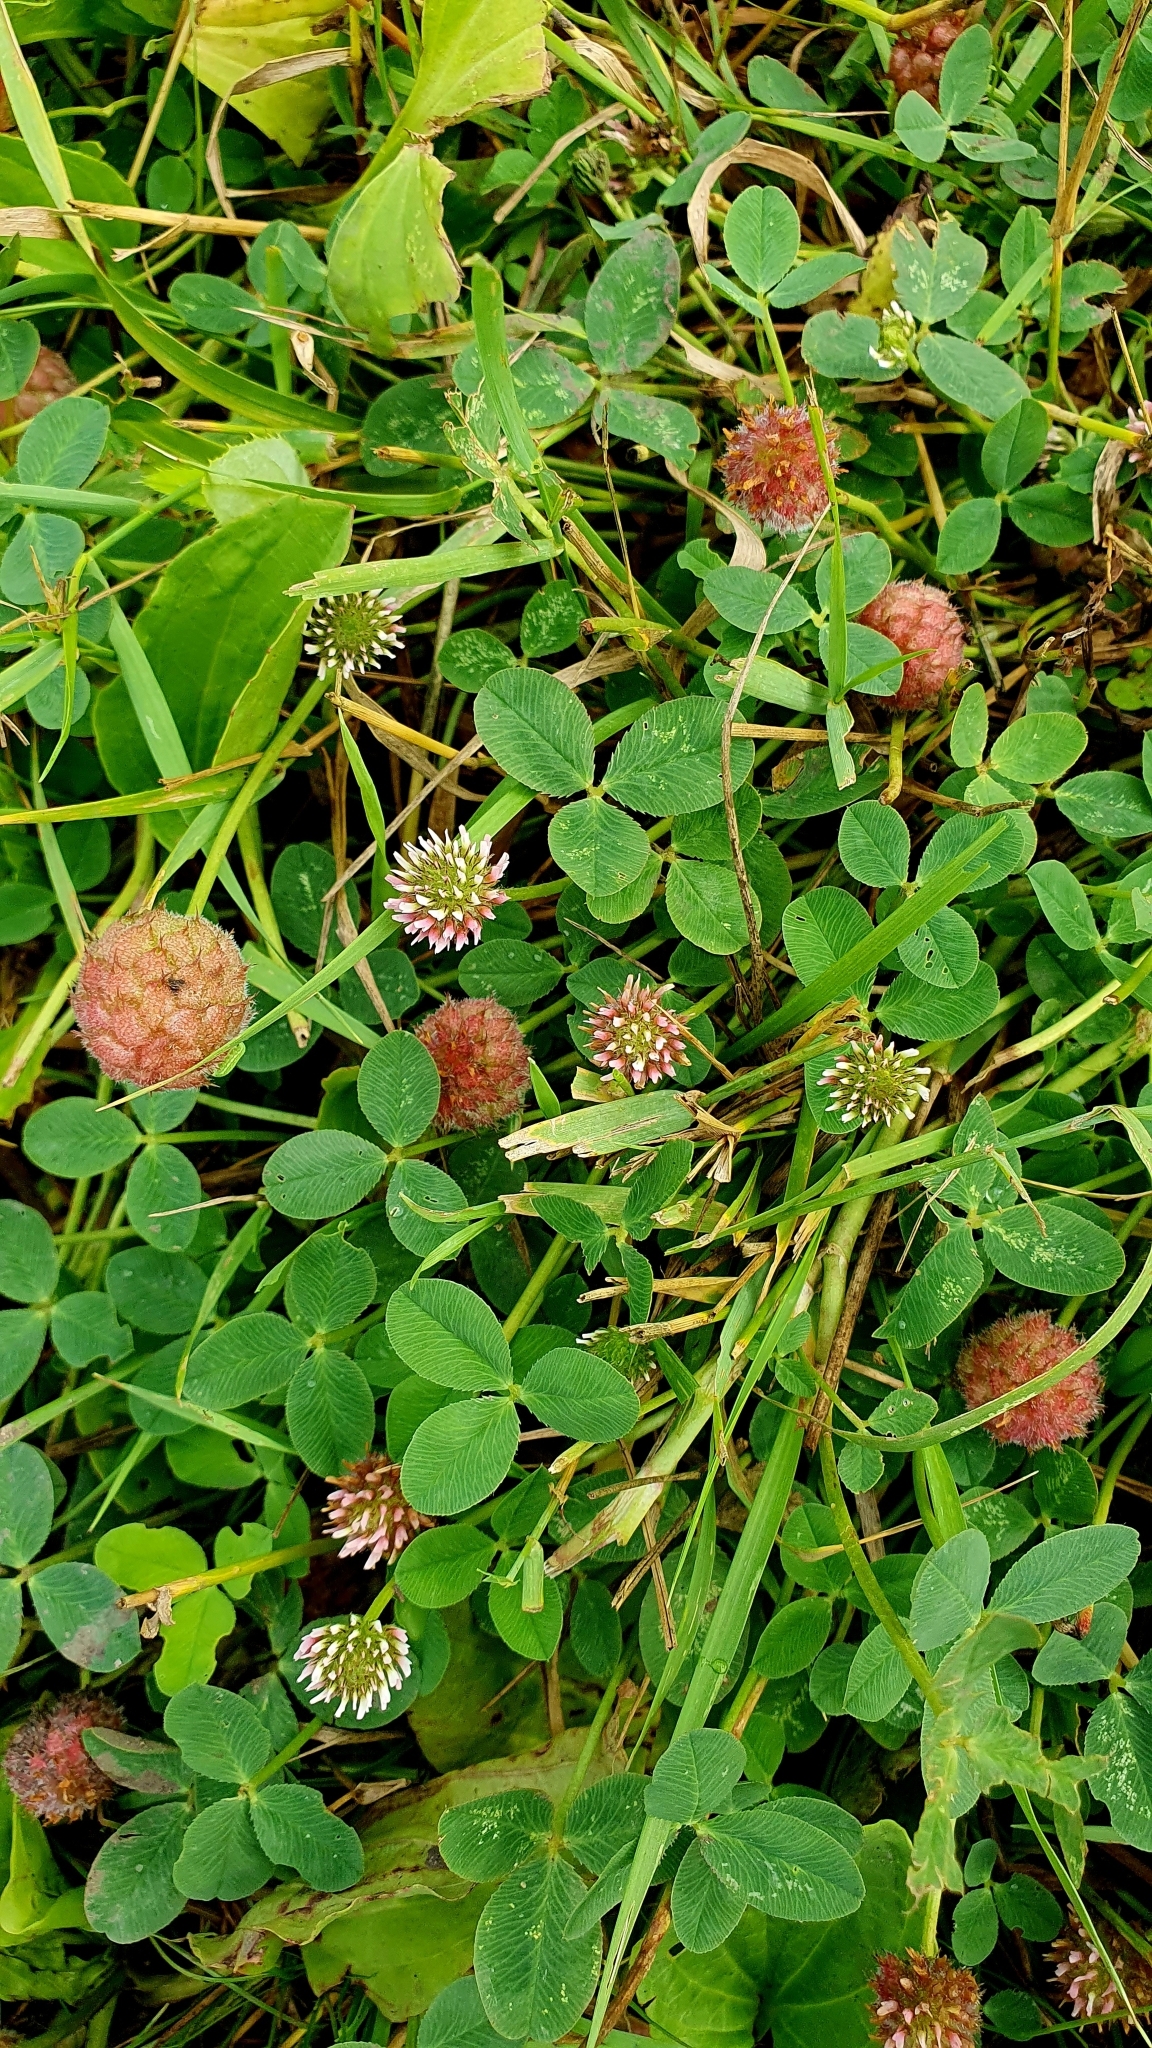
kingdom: Plantae
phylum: Tracheophyta
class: Magnoliopsida
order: Fabales
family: Fabaceae
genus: Trifolium
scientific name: Trifolium fragiferum
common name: Strawberry clover
